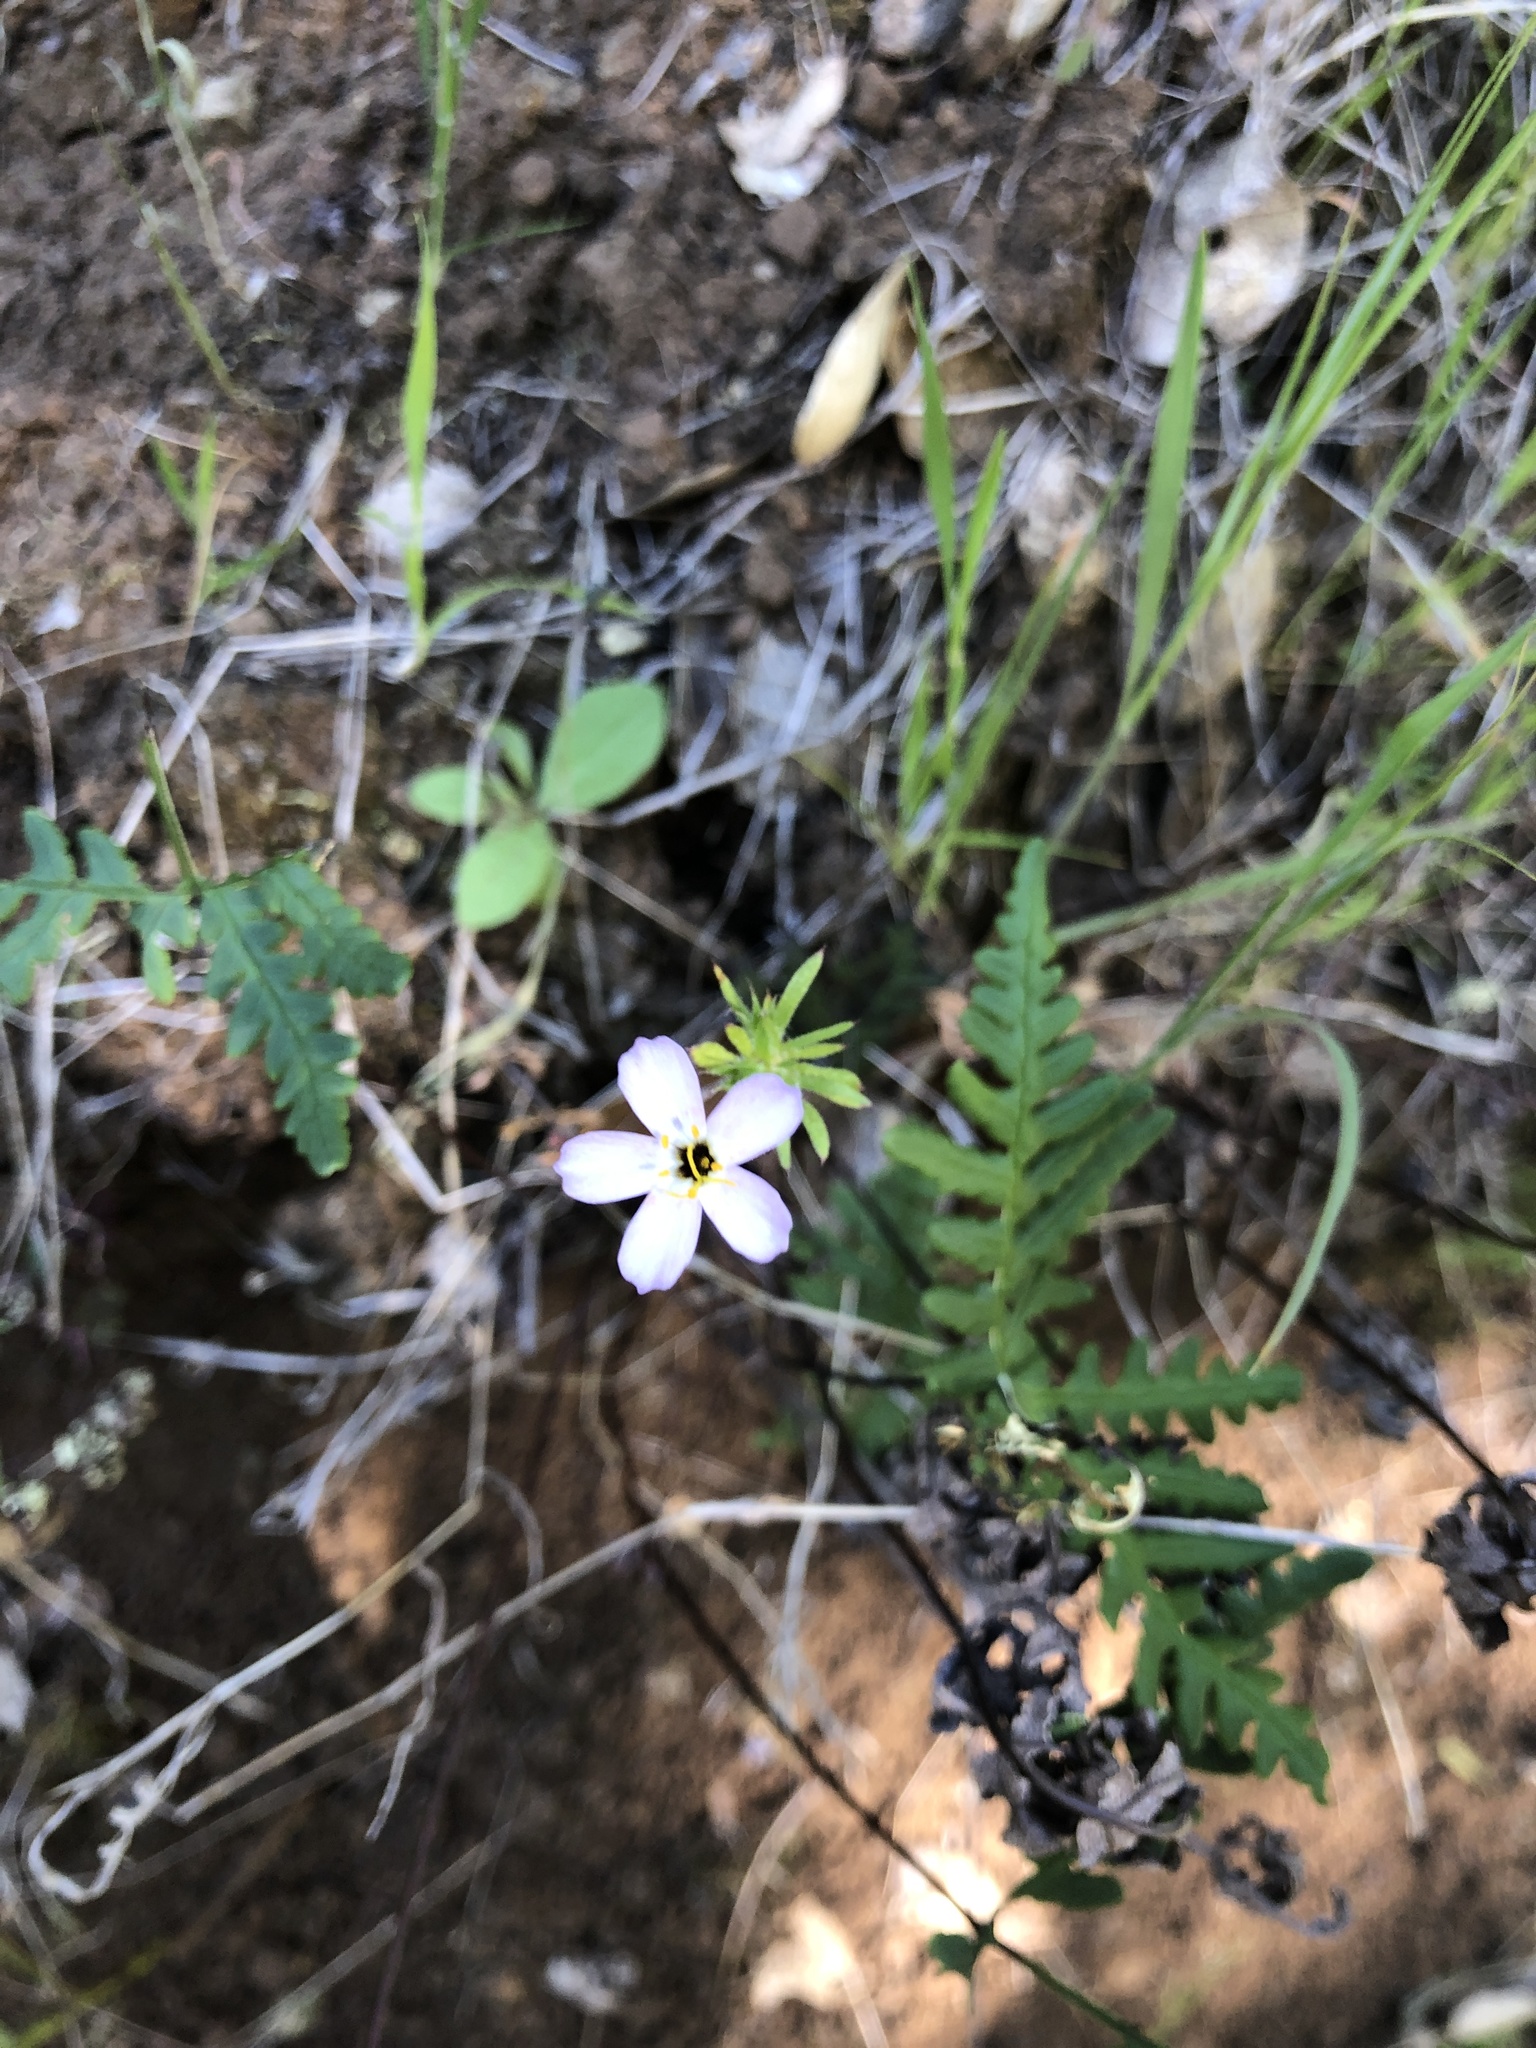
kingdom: Plantae
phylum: Tracheophyta
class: Magnoliopsida
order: Ericales
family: Polemoniaceae
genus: Leptosiphon
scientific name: Leptosiphon androsaceus
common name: False babystars
